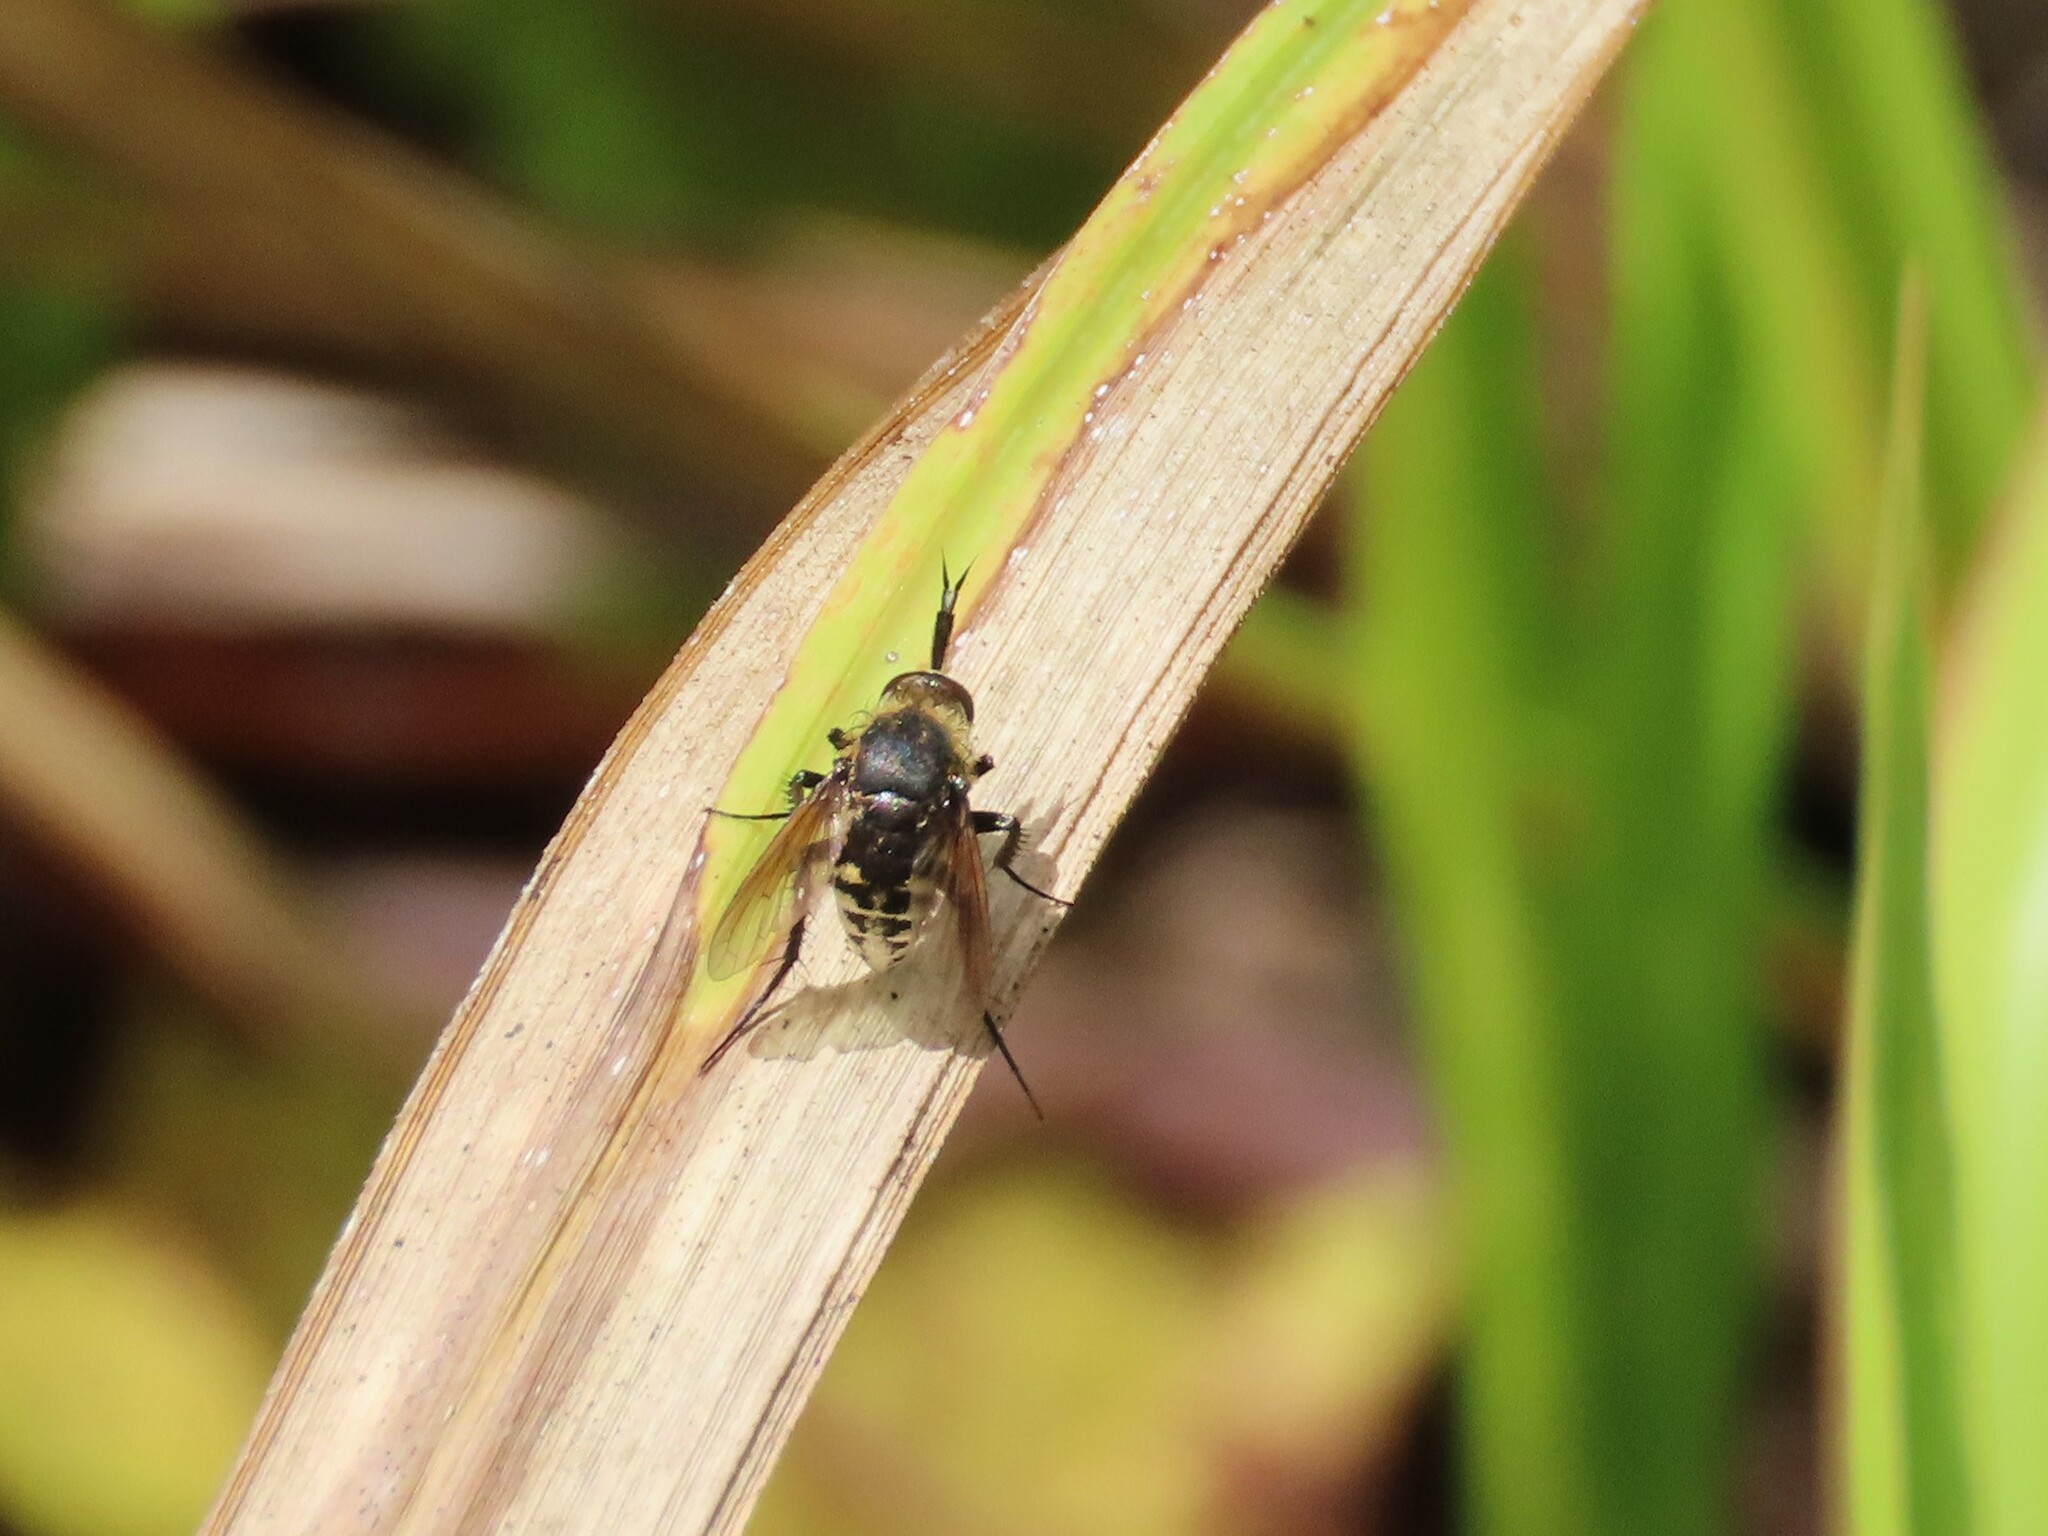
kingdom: Animalia
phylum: Arthropoda
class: Insecta
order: Diptera
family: Bombyliidae
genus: Toxophora
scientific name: Toxophora amphitea
